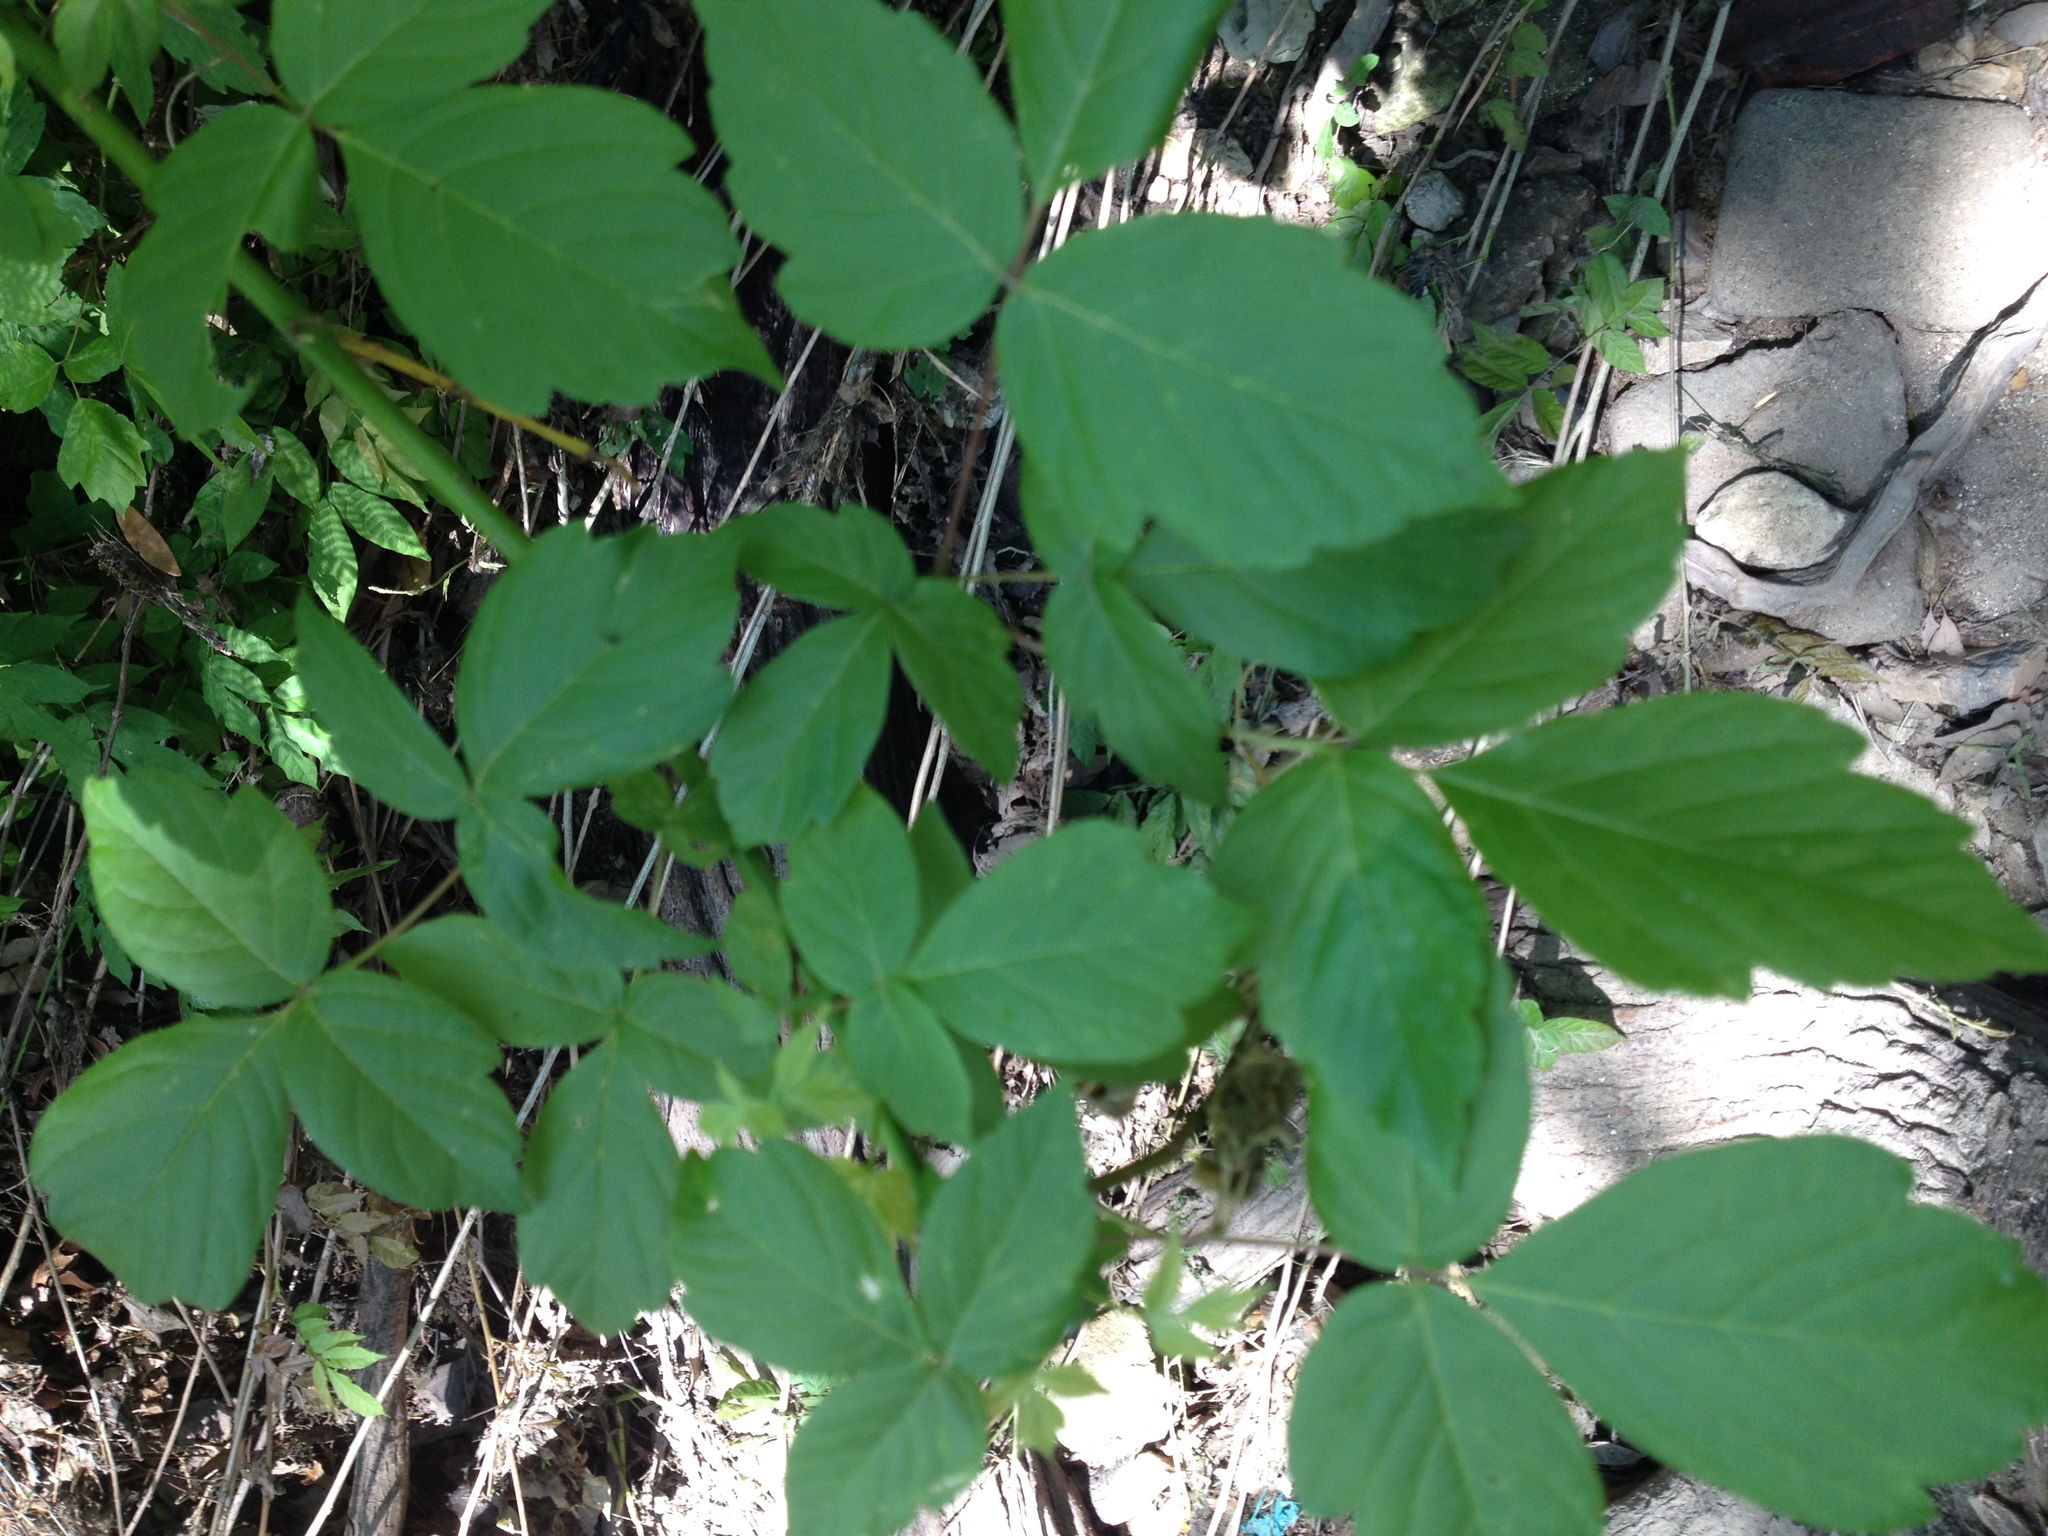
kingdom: Plantae
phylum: Tracheophyta
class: Magnoliopsida
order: Sapindales
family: Sapindaceae
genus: Acer
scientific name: Acer negundo
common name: Ashleaf maple
